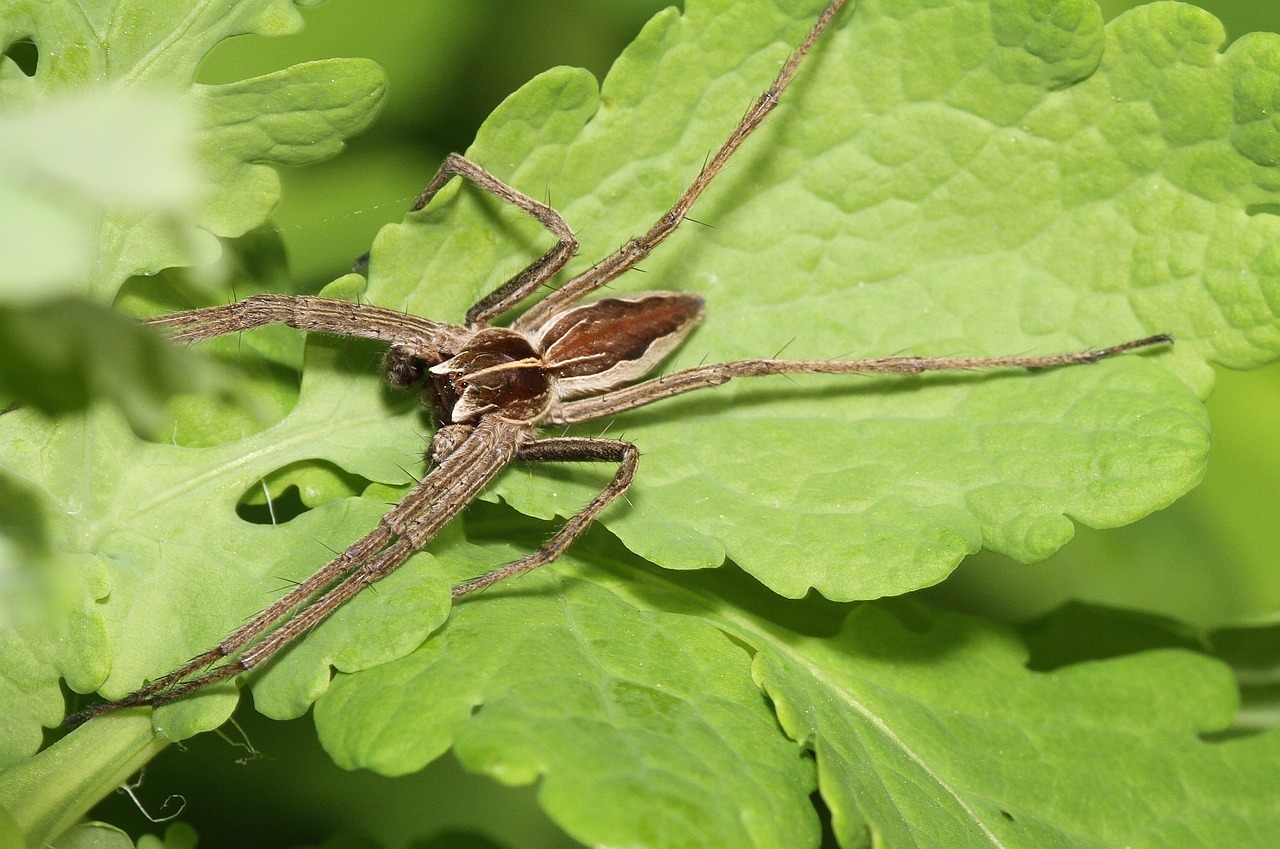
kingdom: Animalia
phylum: Arthropoda
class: Arachnida
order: Araneae
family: Pisauridae
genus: Pisaura
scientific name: Pisaura mirabilis
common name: Tent spider
